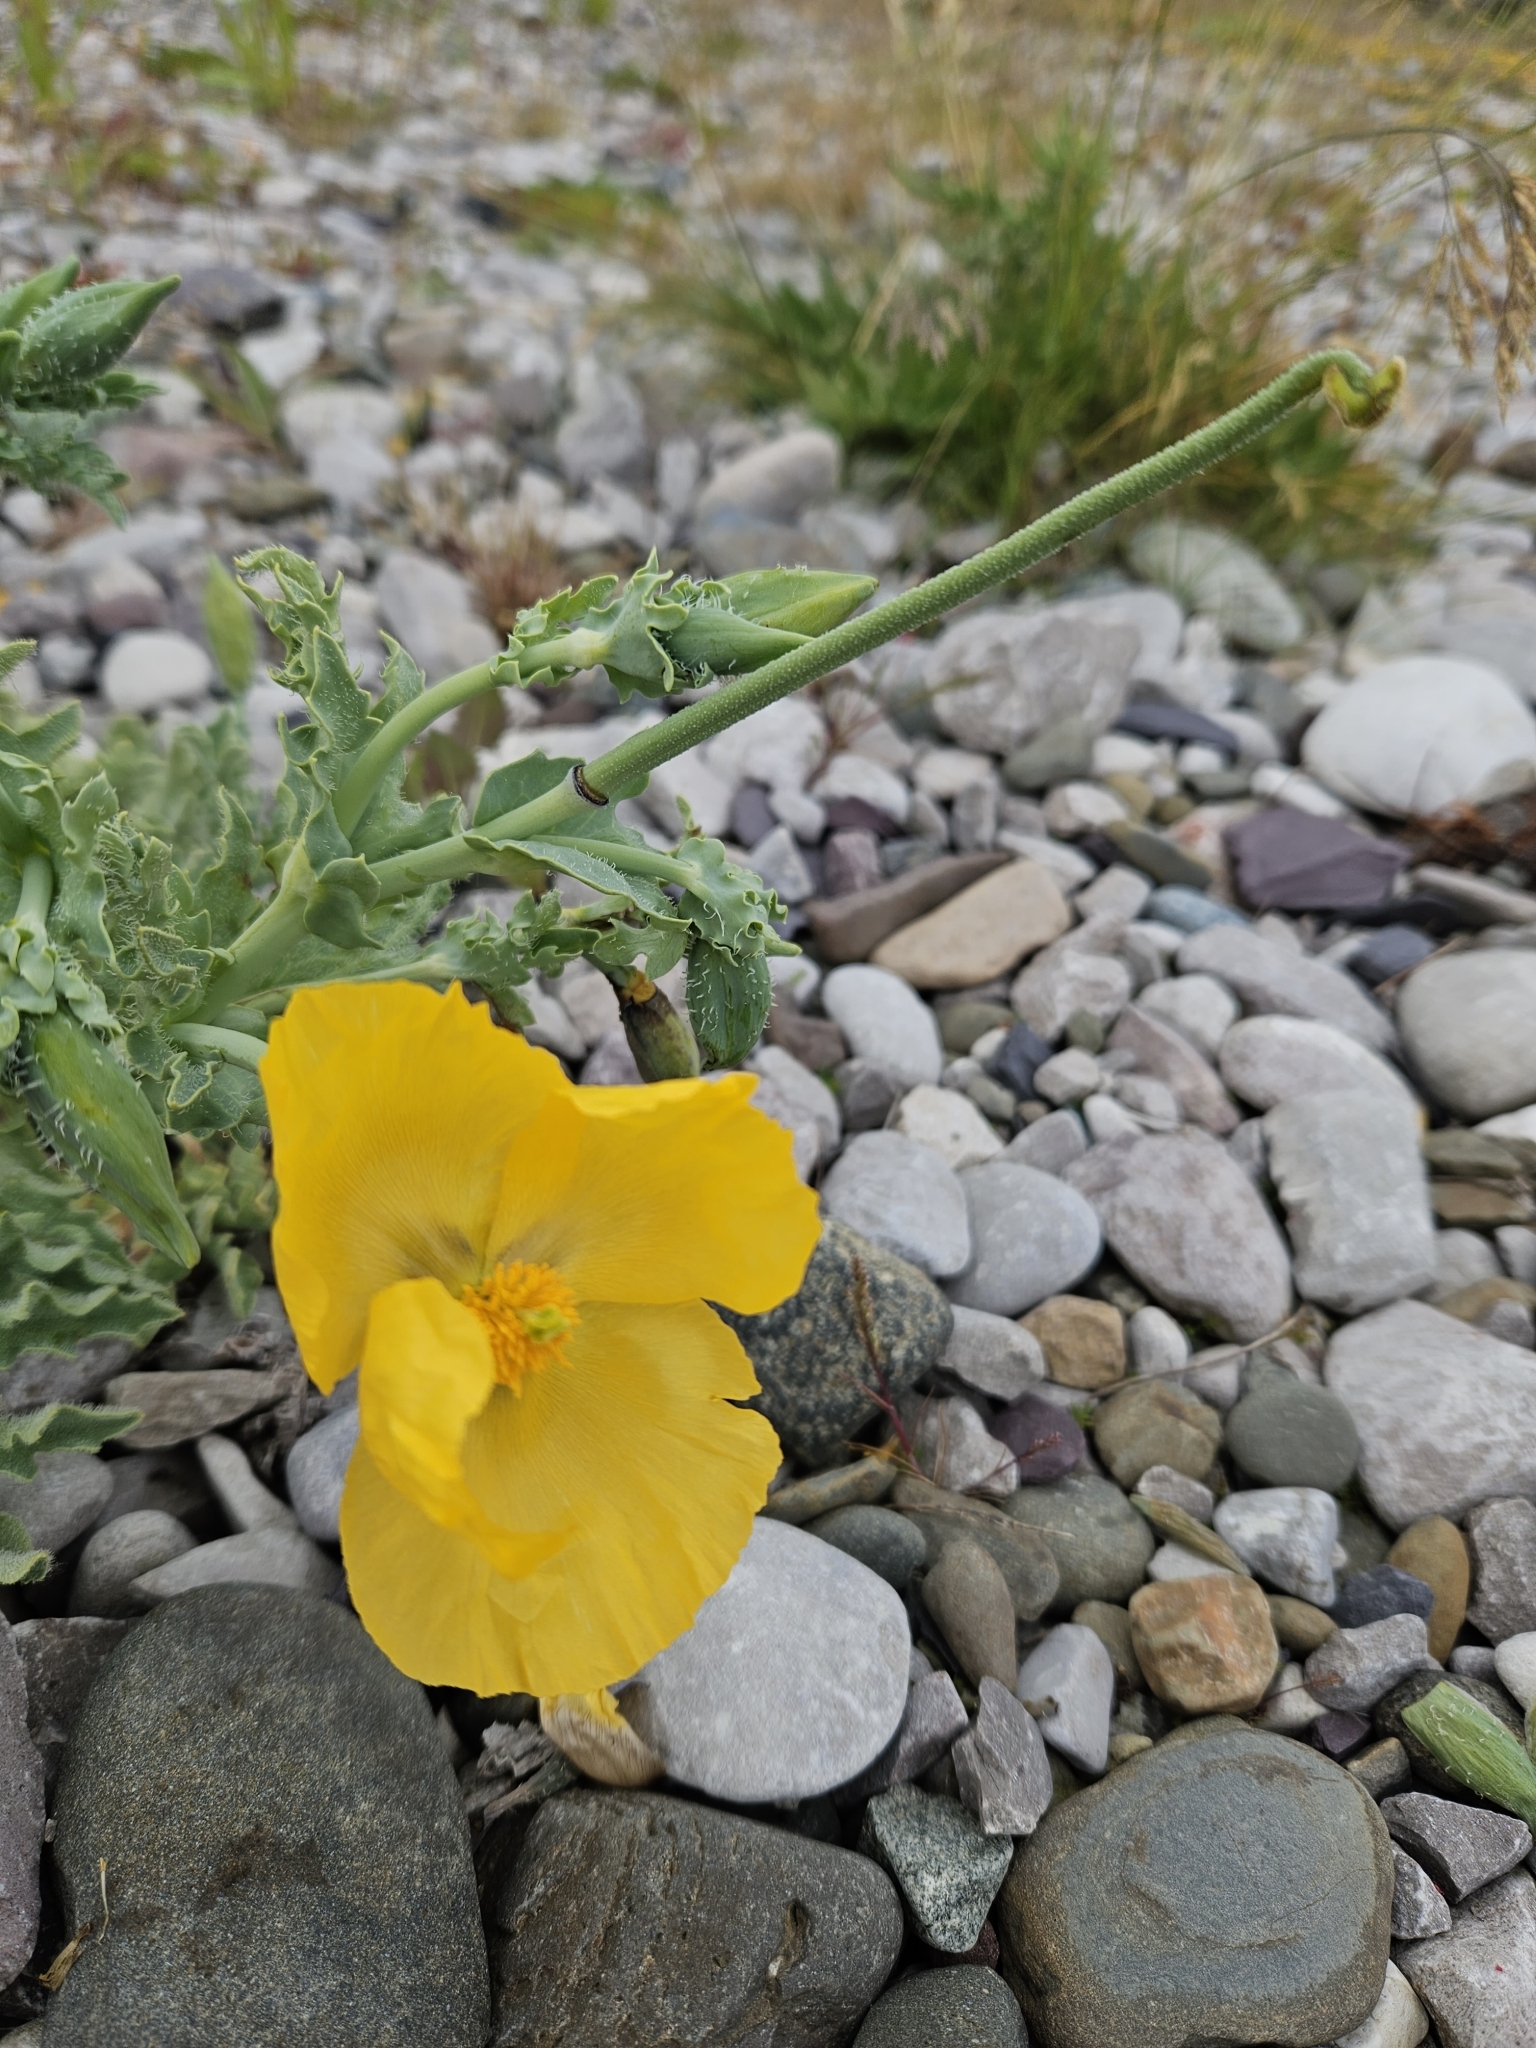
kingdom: Plantae
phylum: Tracheophyta
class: Magnoliopsida
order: Ranunculales
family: Papaveraceae
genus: Glaucium
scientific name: Glaucium flavum
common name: Yellow horned-poppy
